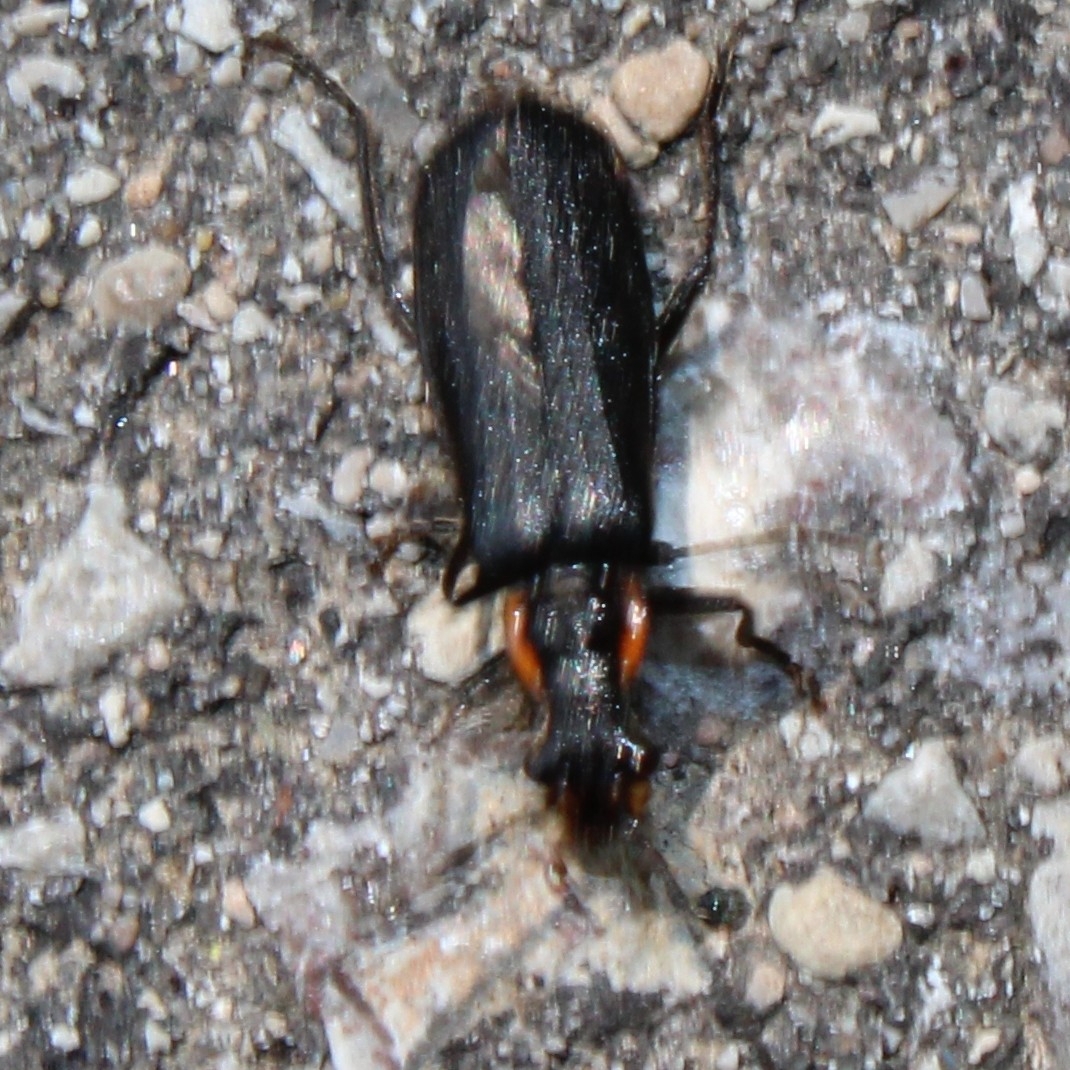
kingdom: Animalia
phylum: Arthropoda
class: Insecta
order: Coleoptera
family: Cantharidae
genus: Podabrus
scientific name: Podabrus rugosulus
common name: Wrinkled soldier beetle
